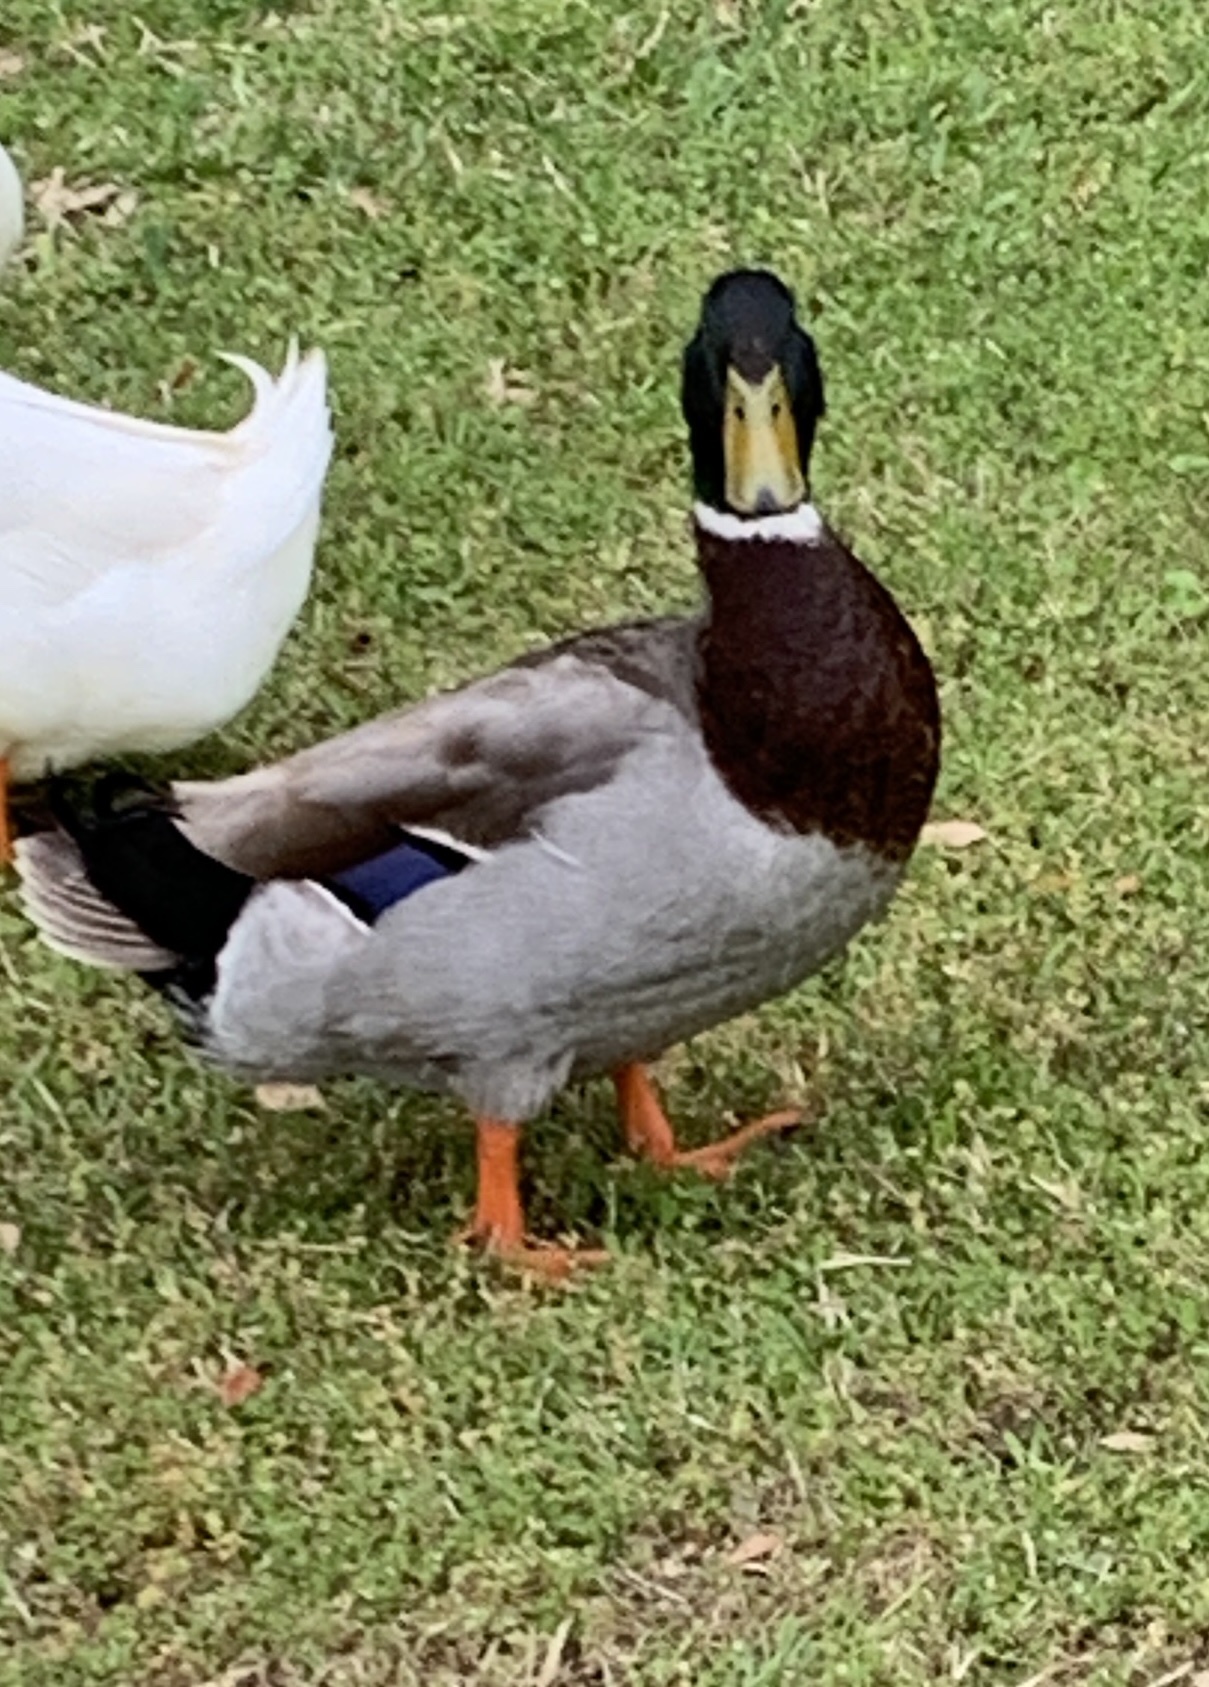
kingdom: Animalia
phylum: Chordata
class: Aves
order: Anseriformes
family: Anatidae
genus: Anas
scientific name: Anas platyrhynchos
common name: Mallard
